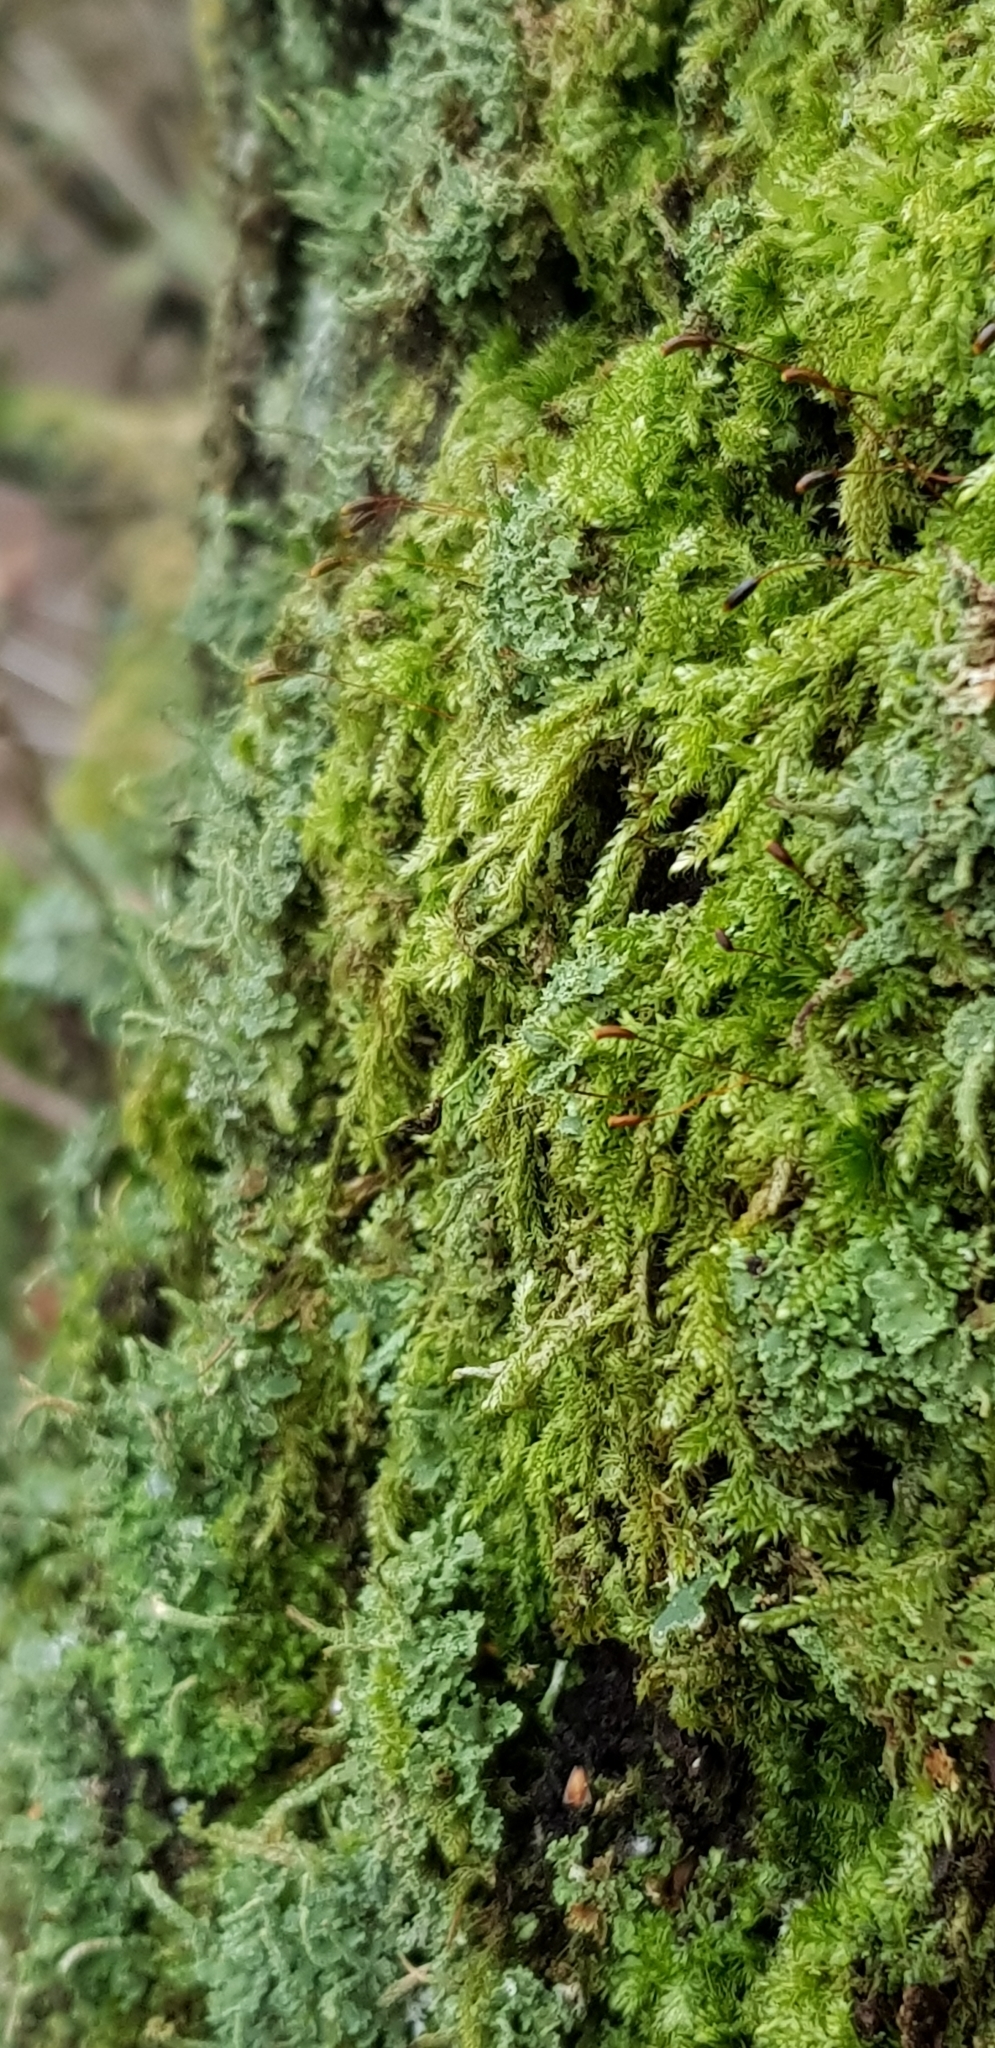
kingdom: Plantae
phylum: Bryophyta
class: Bryopsida
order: Hypnales
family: Hypnaceae
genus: Hypnum
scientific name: Hypnum andoi
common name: Ando's plait moss
